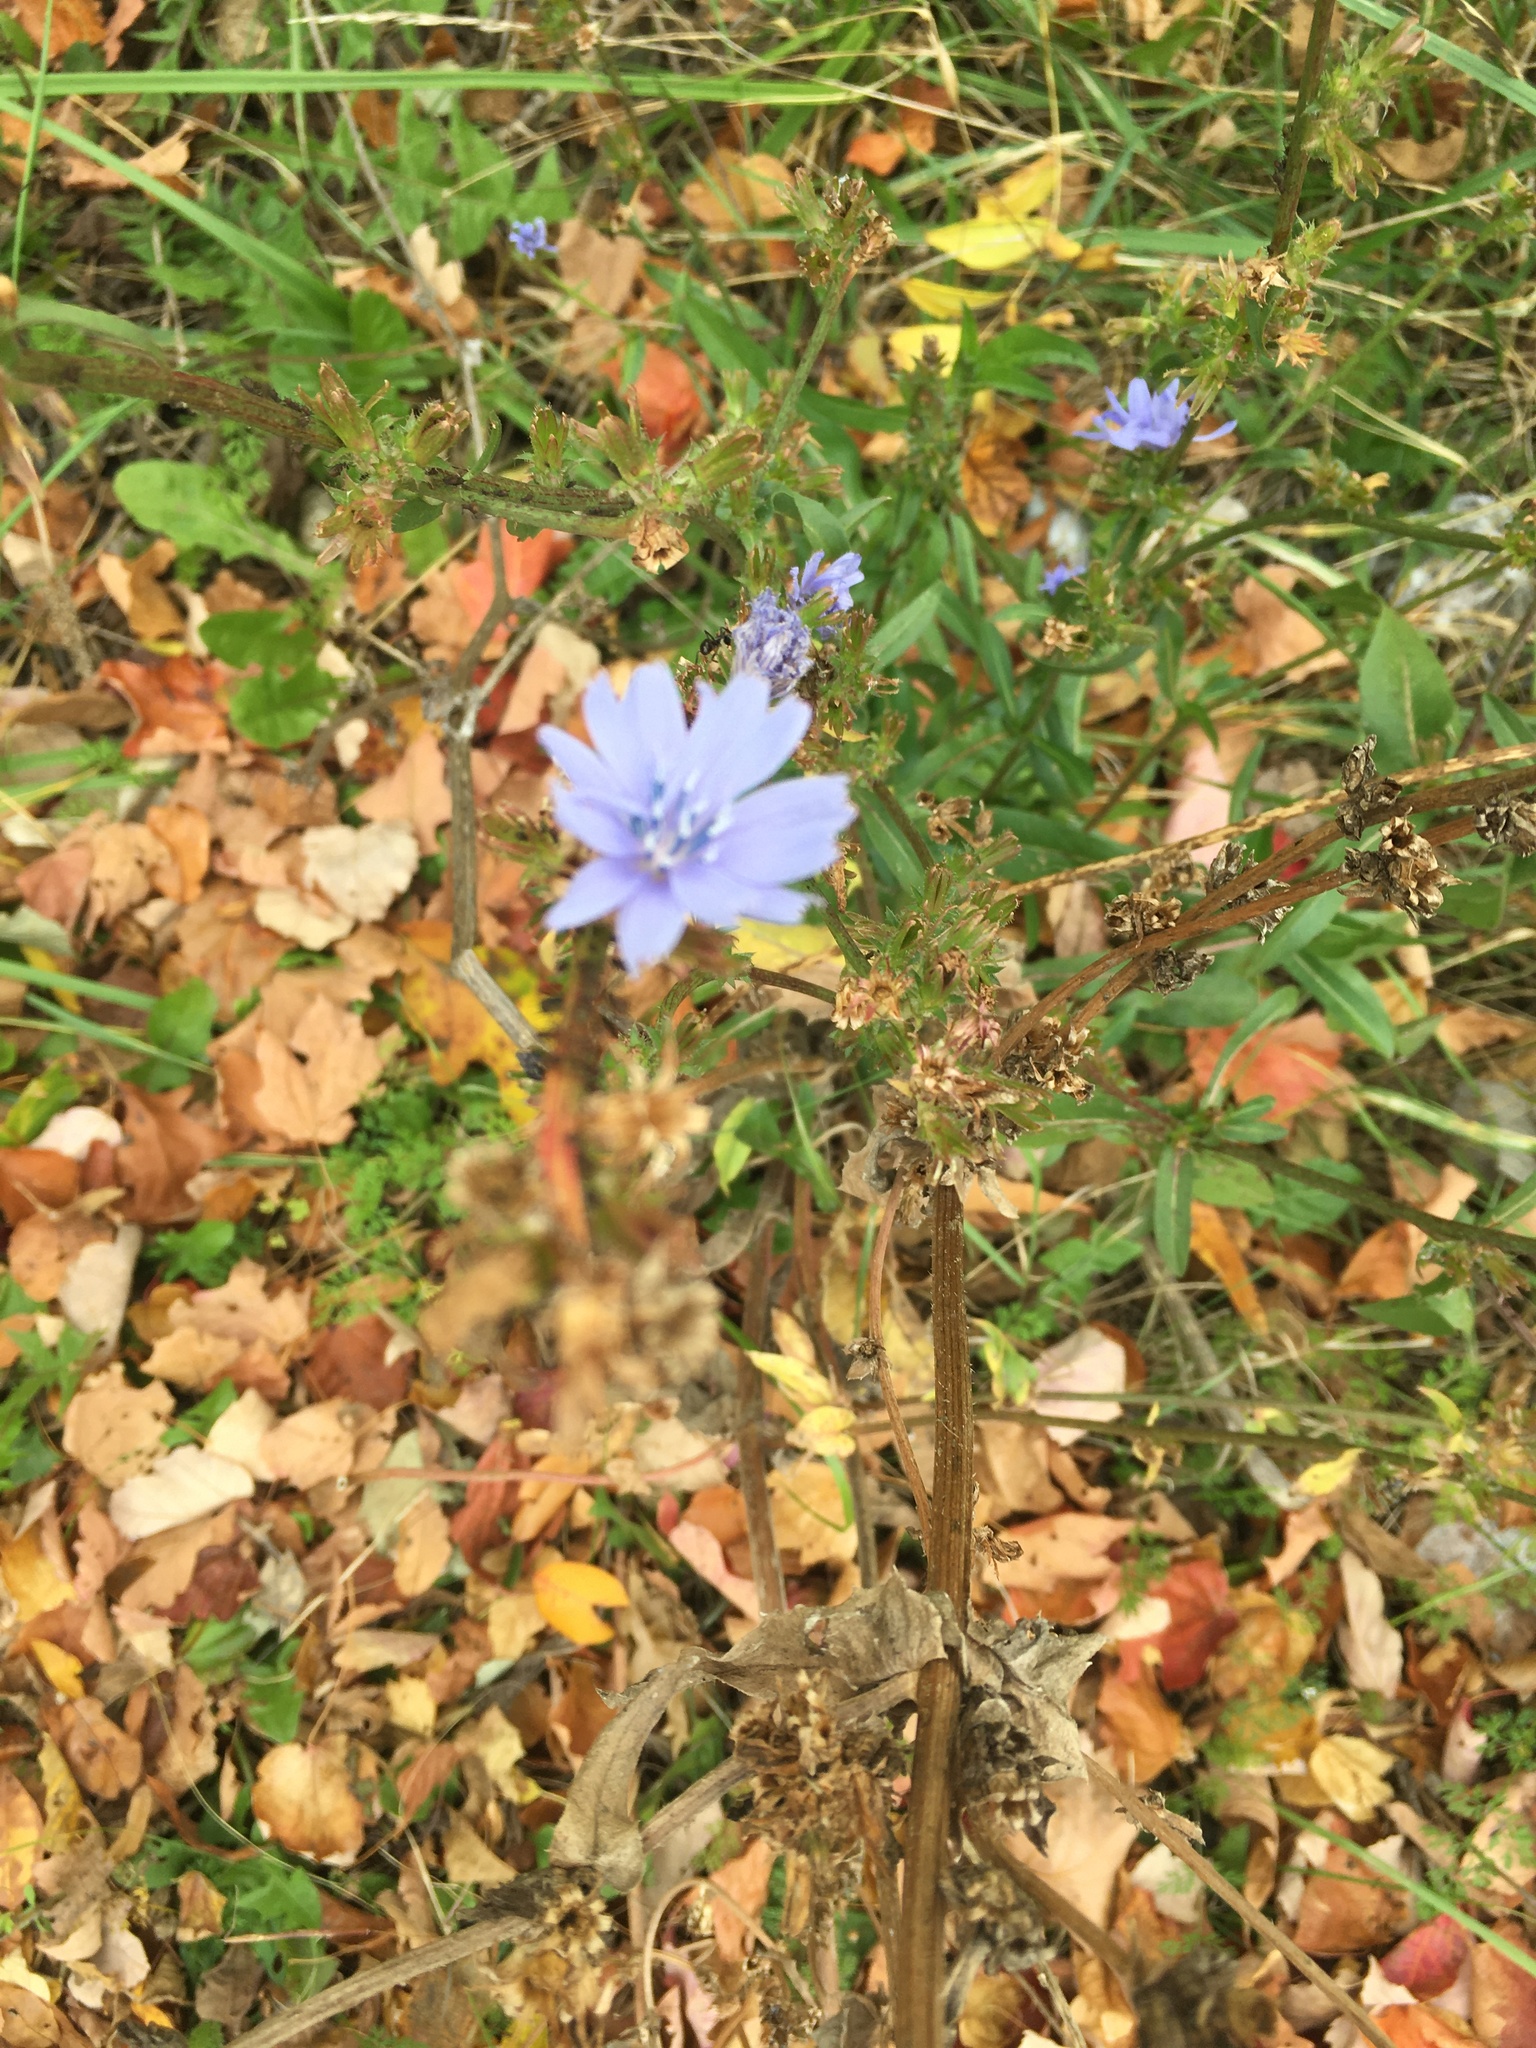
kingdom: Plantae
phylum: Tracheophyta
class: Magnoliopsida
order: Asterales
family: Asteraceae
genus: Cichorium
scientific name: Cichorium intybus
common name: Chicory
